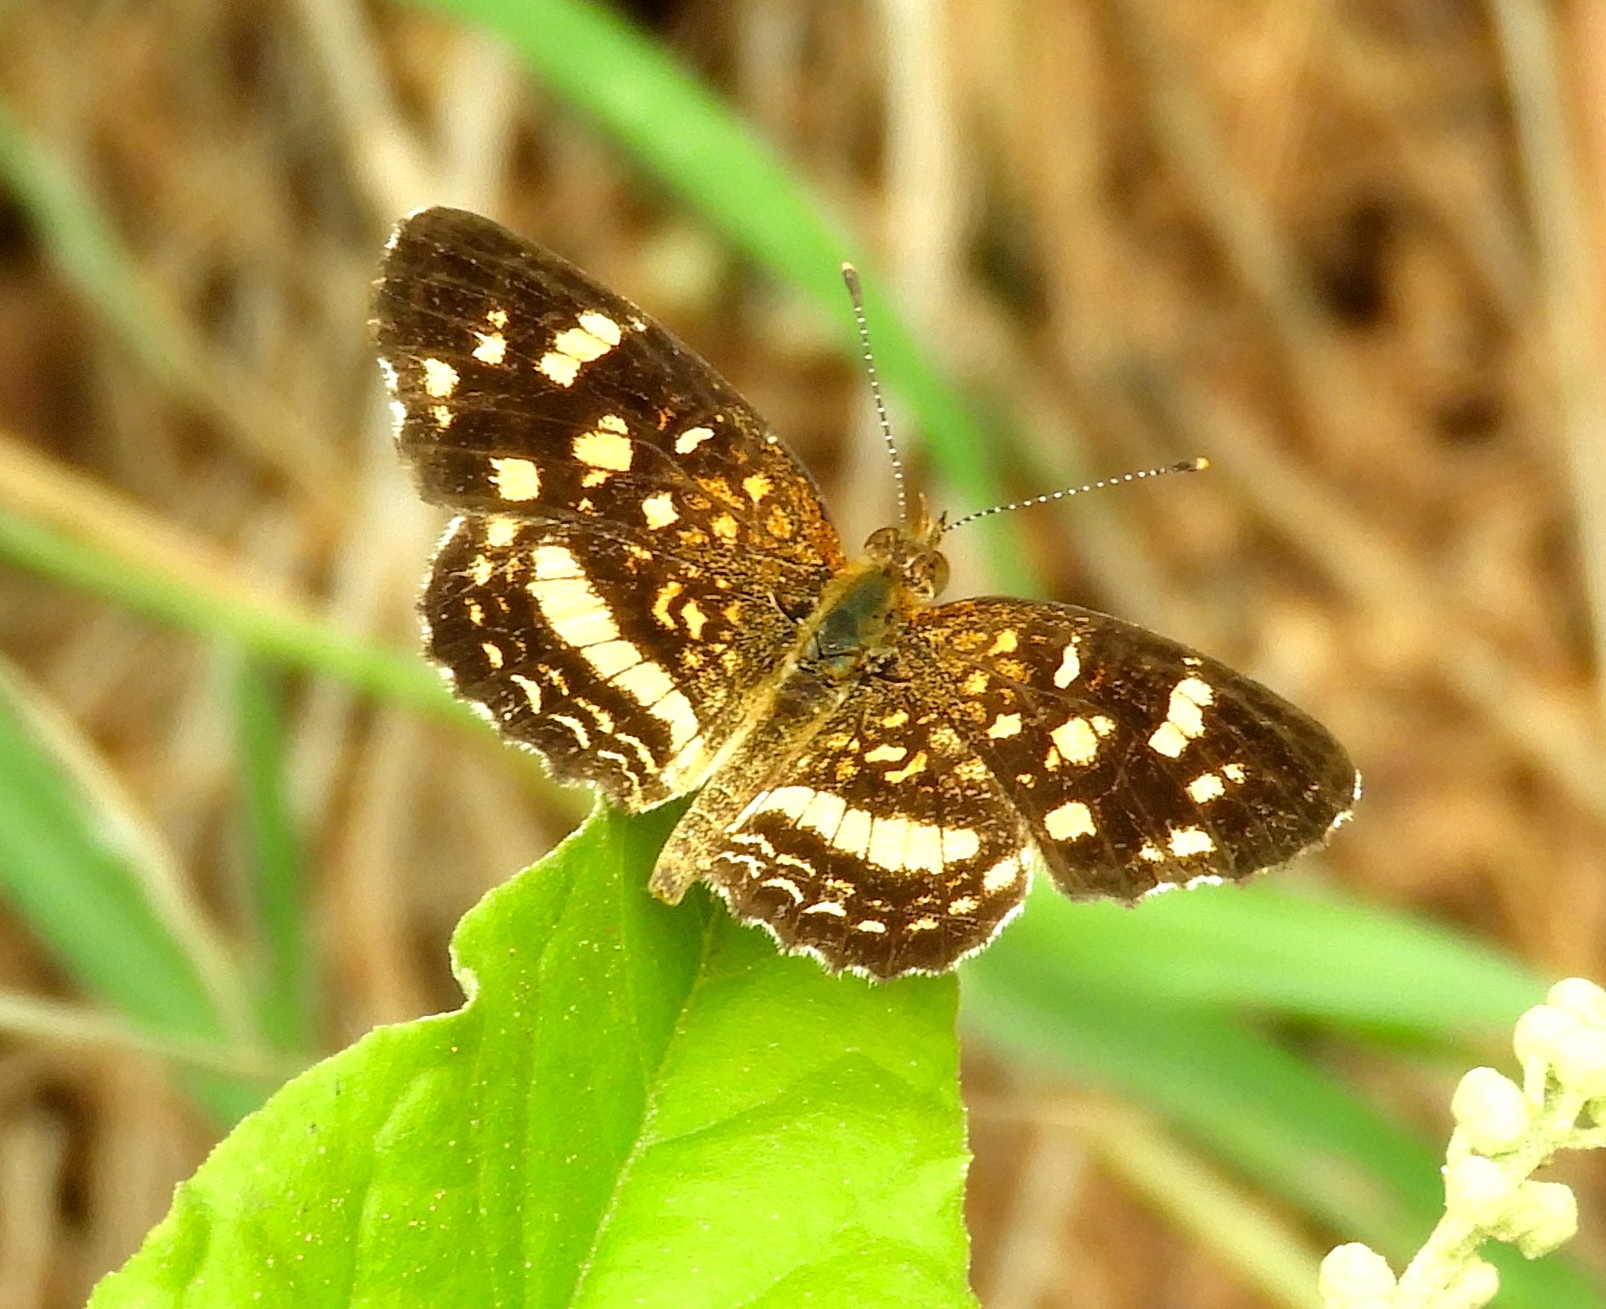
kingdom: Animalia
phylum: Arthropoda
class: Insecta
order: Lepidoptera
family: Nymphalidae
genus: Anthanassa
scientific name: Anthanassa tulcis
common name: Pale-banded crescent
